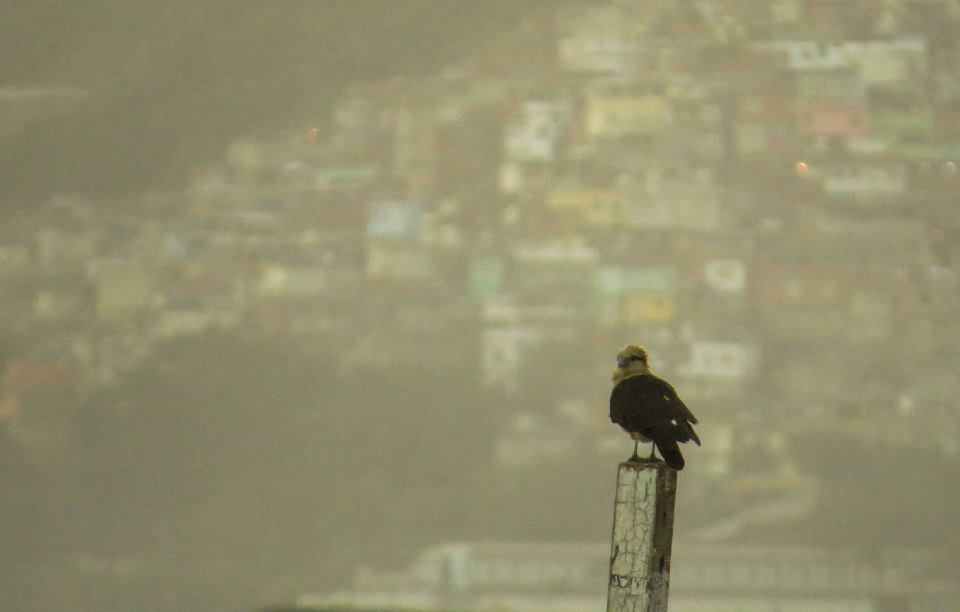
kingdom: Animalia
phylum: Chordata
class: Aves
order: Falconiformes
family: Falconidae
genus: Daptrius
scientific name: Daptrius
